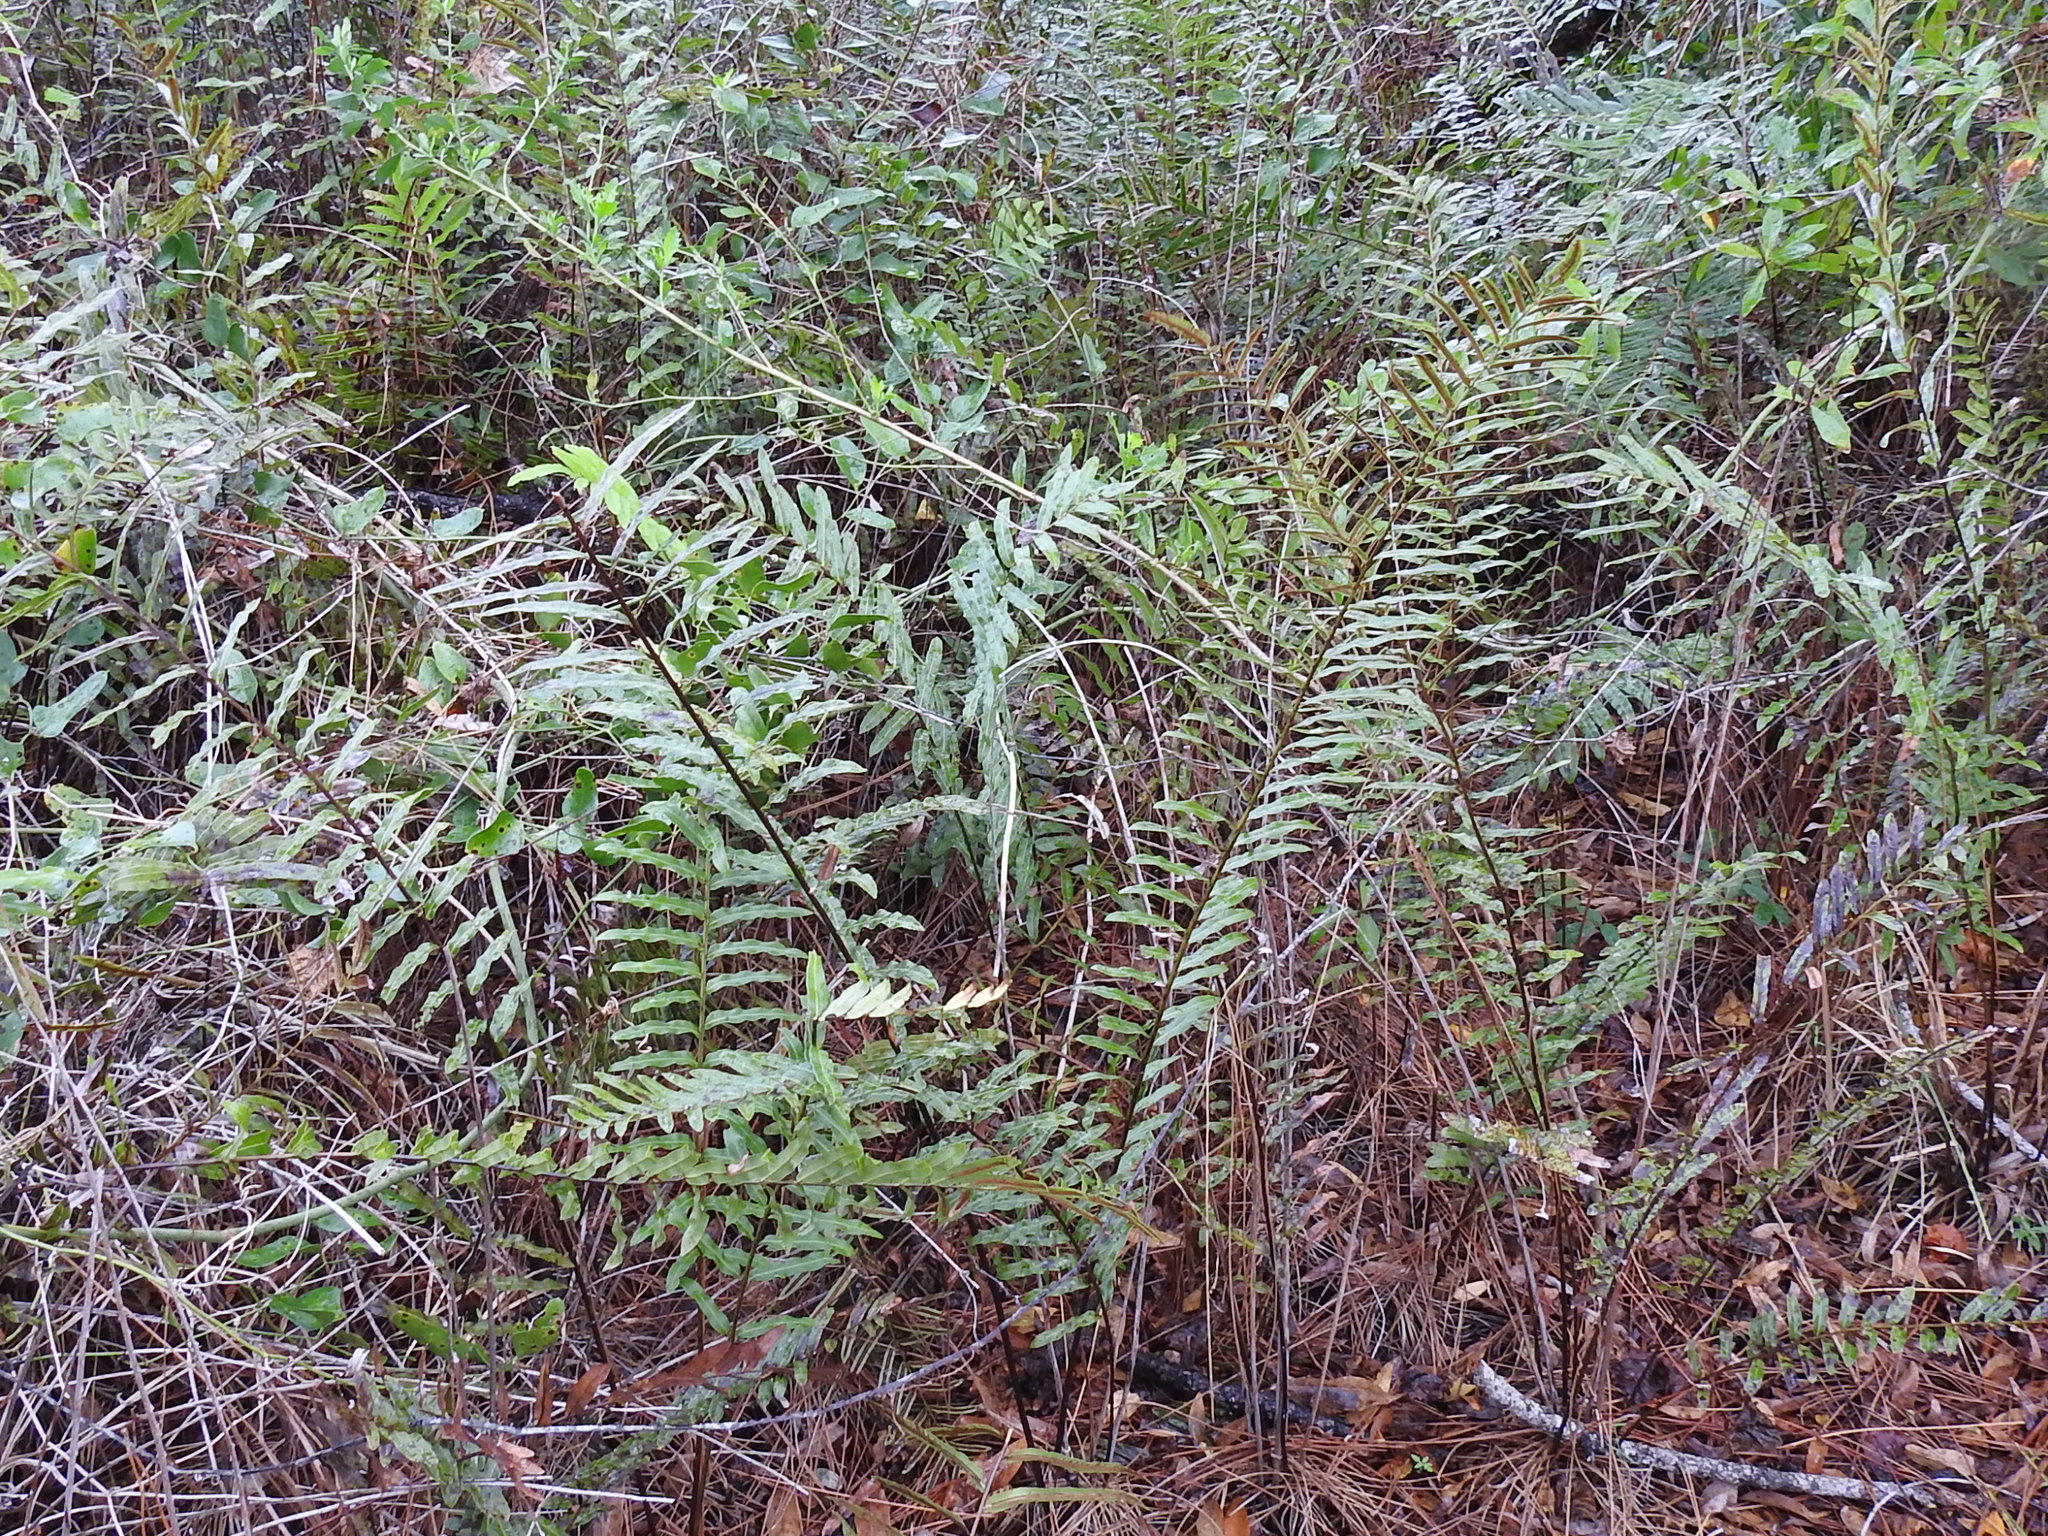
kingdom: Plantae
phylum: Tracheophyta
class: Polypodiopsida
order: Polypodiales
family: Blechnaceae
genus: Telmatoblechnum
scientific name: Telmatoblechnum serrulatum
